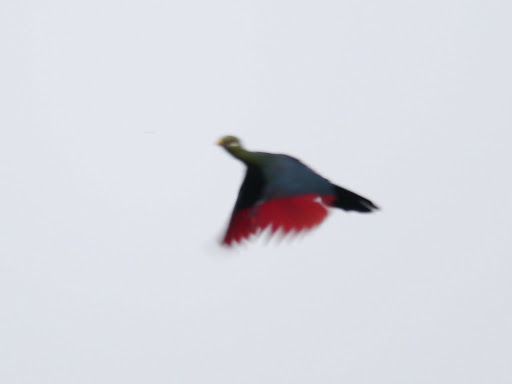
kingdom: Animalia
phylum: Chordata
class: Aves
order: Musophagiformes
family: Musophagidae
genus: Tauraco
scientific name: Tauraco macrorhynchus
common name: Yellow-billed turaco
